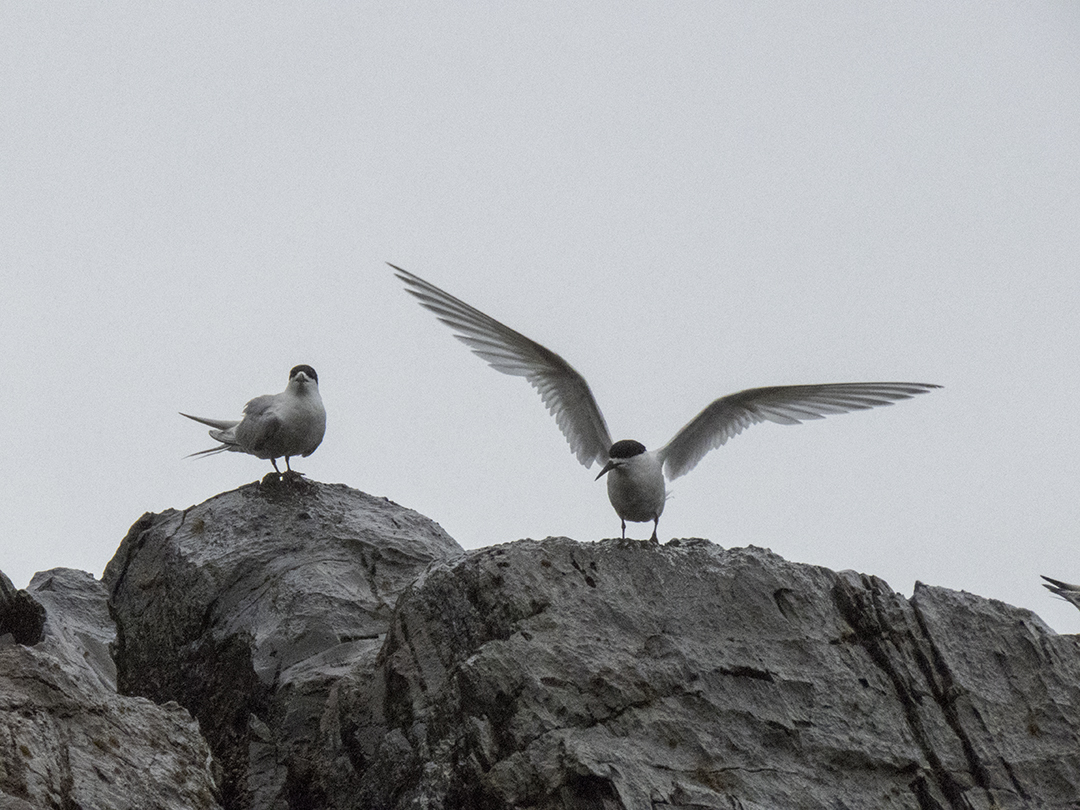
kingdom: Animalia
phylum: Chordata
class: Aves
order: Charadriiformes
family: Laridae
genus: Sterna
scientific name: Sterna striata
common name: White-fronted tern
